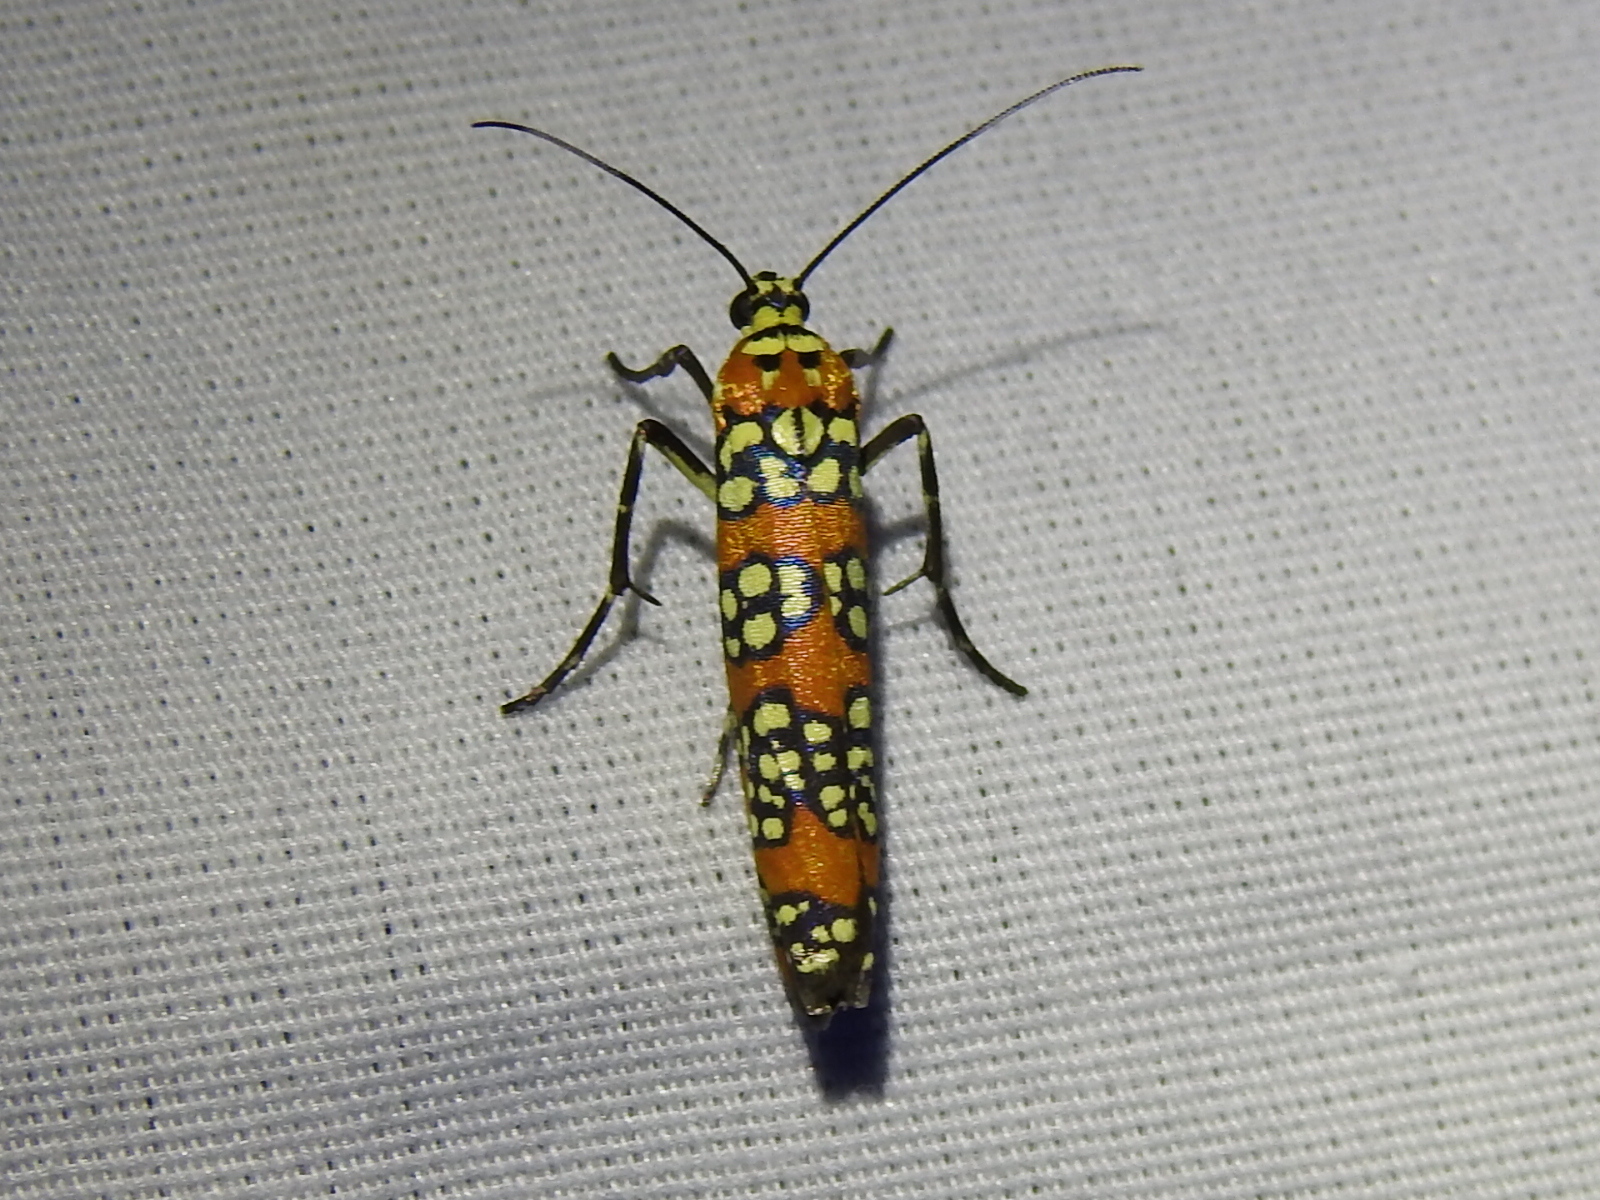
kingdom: Animalia
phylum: Arthropoda
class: Insecta
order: Lepidoptera
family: Attevidae
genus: Atteva
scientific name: Atteva punctella
